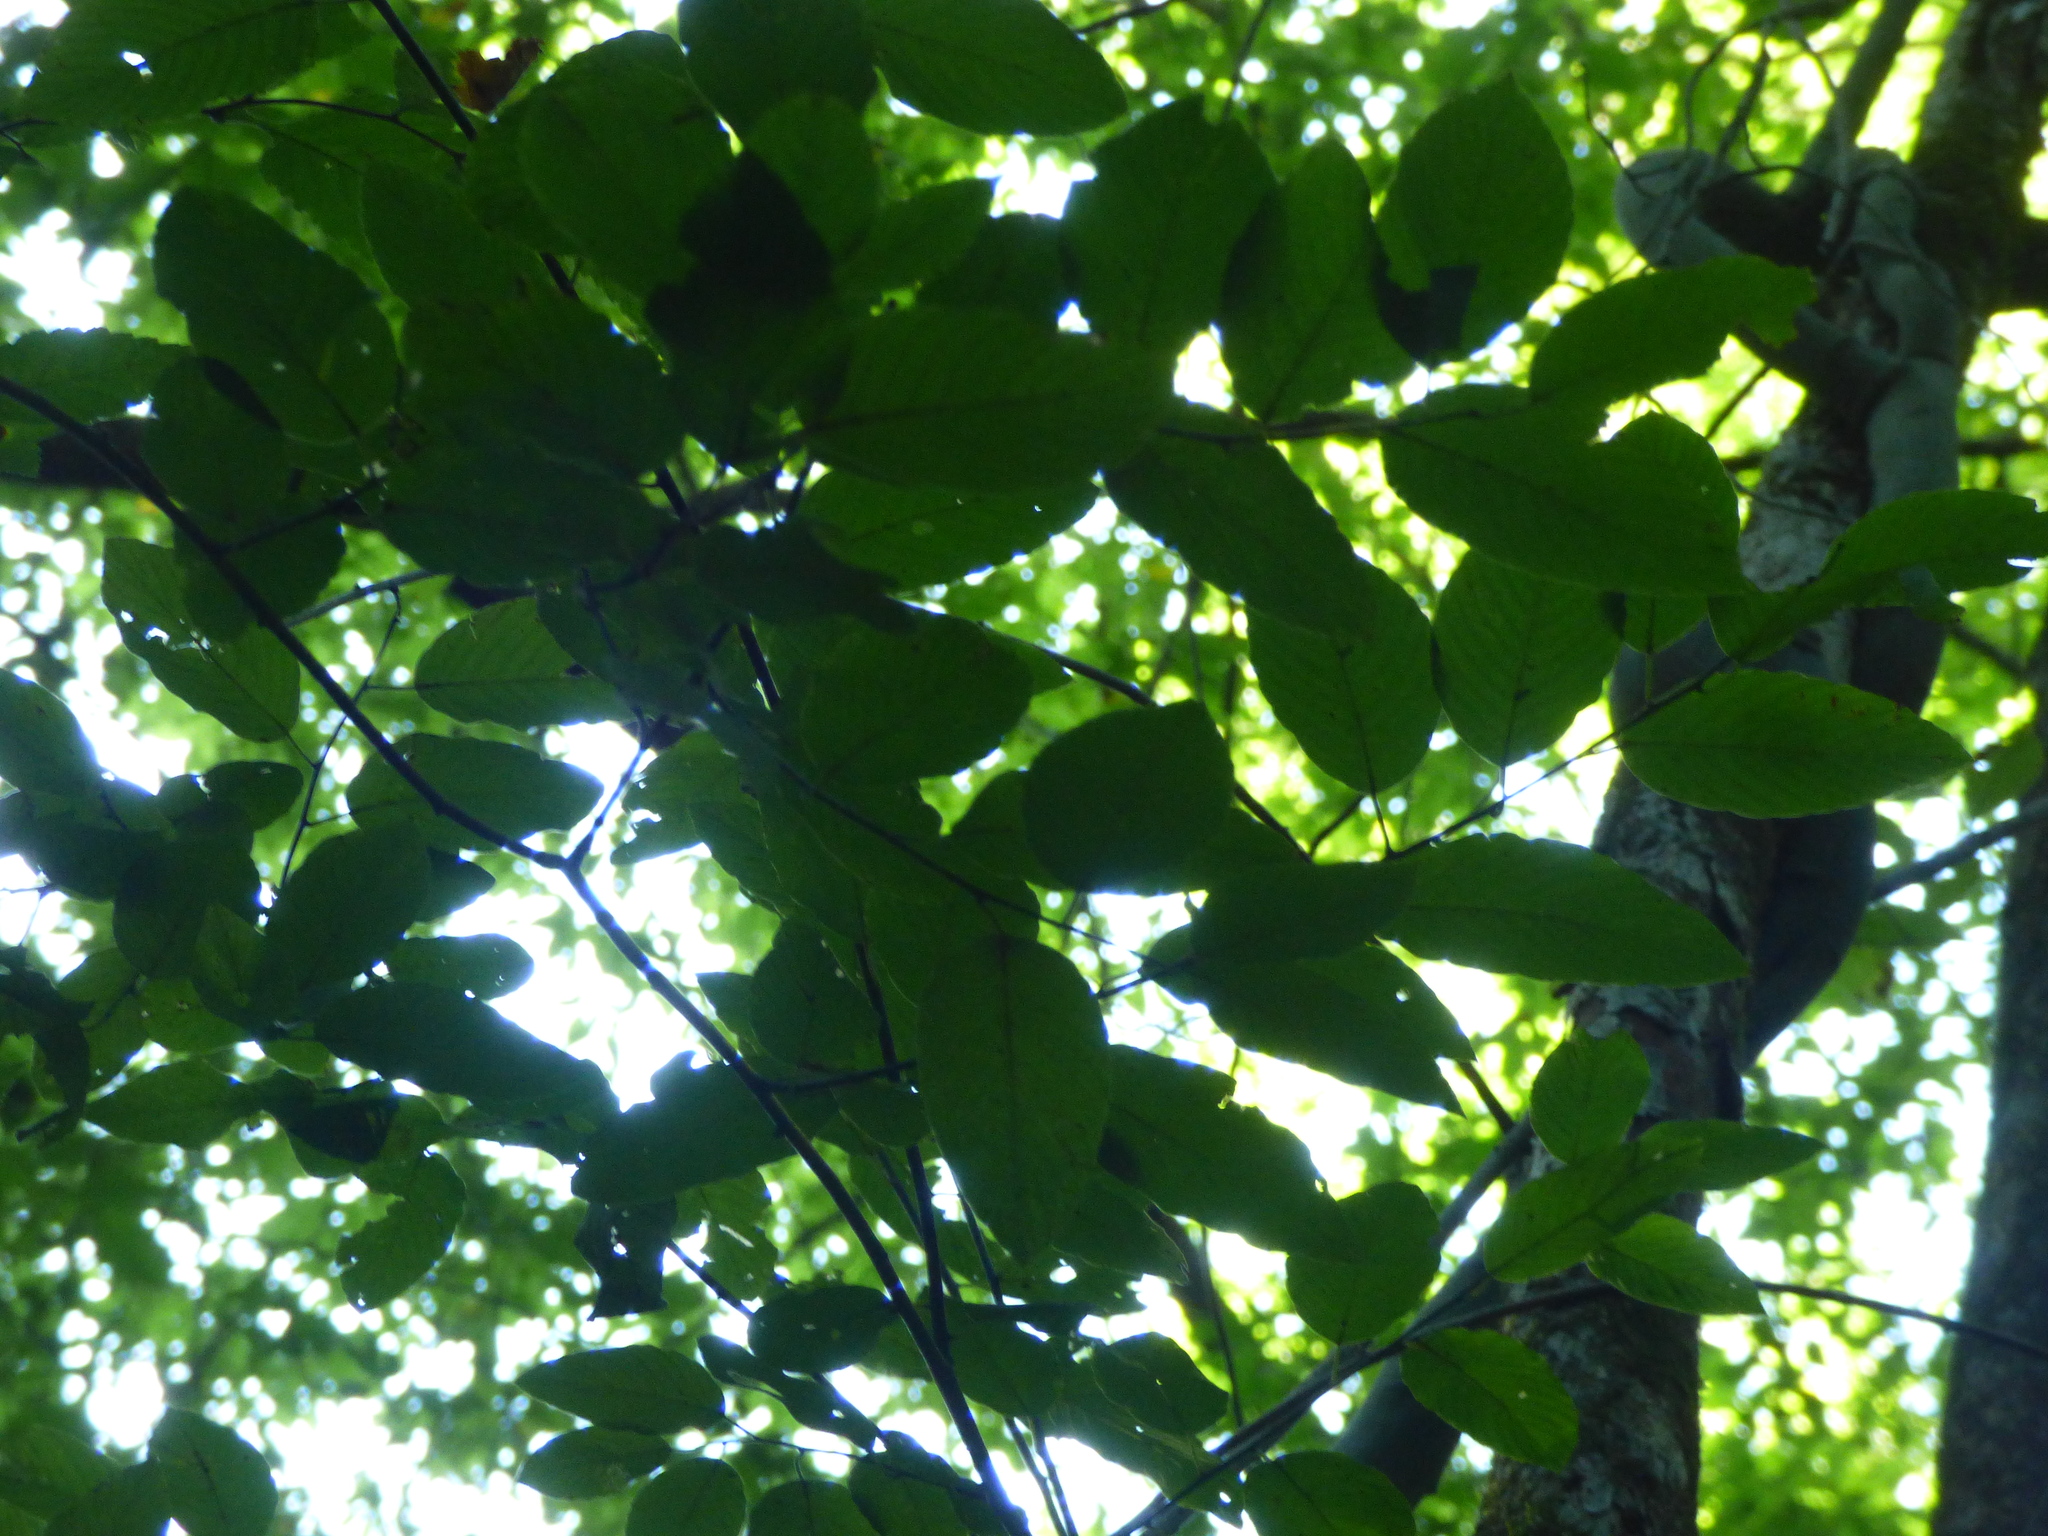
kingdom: Plantae
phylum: Tracheophyta
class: Magnoliopsida
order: Rosales
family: Rhamnaceae
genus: Berchemia
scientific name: Berchemia scandens
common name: Supplejack
